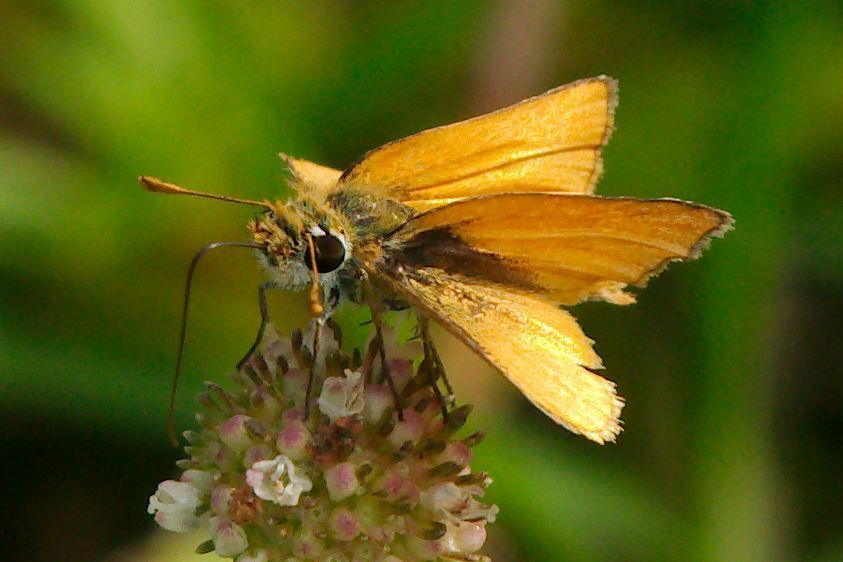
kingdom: Animalia
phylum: Arthropoda
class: Insecta
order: Lepidoptera
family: Hesperiidae
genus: Copaeodes
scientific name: Copaeodes minima
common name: Southern skipperling
